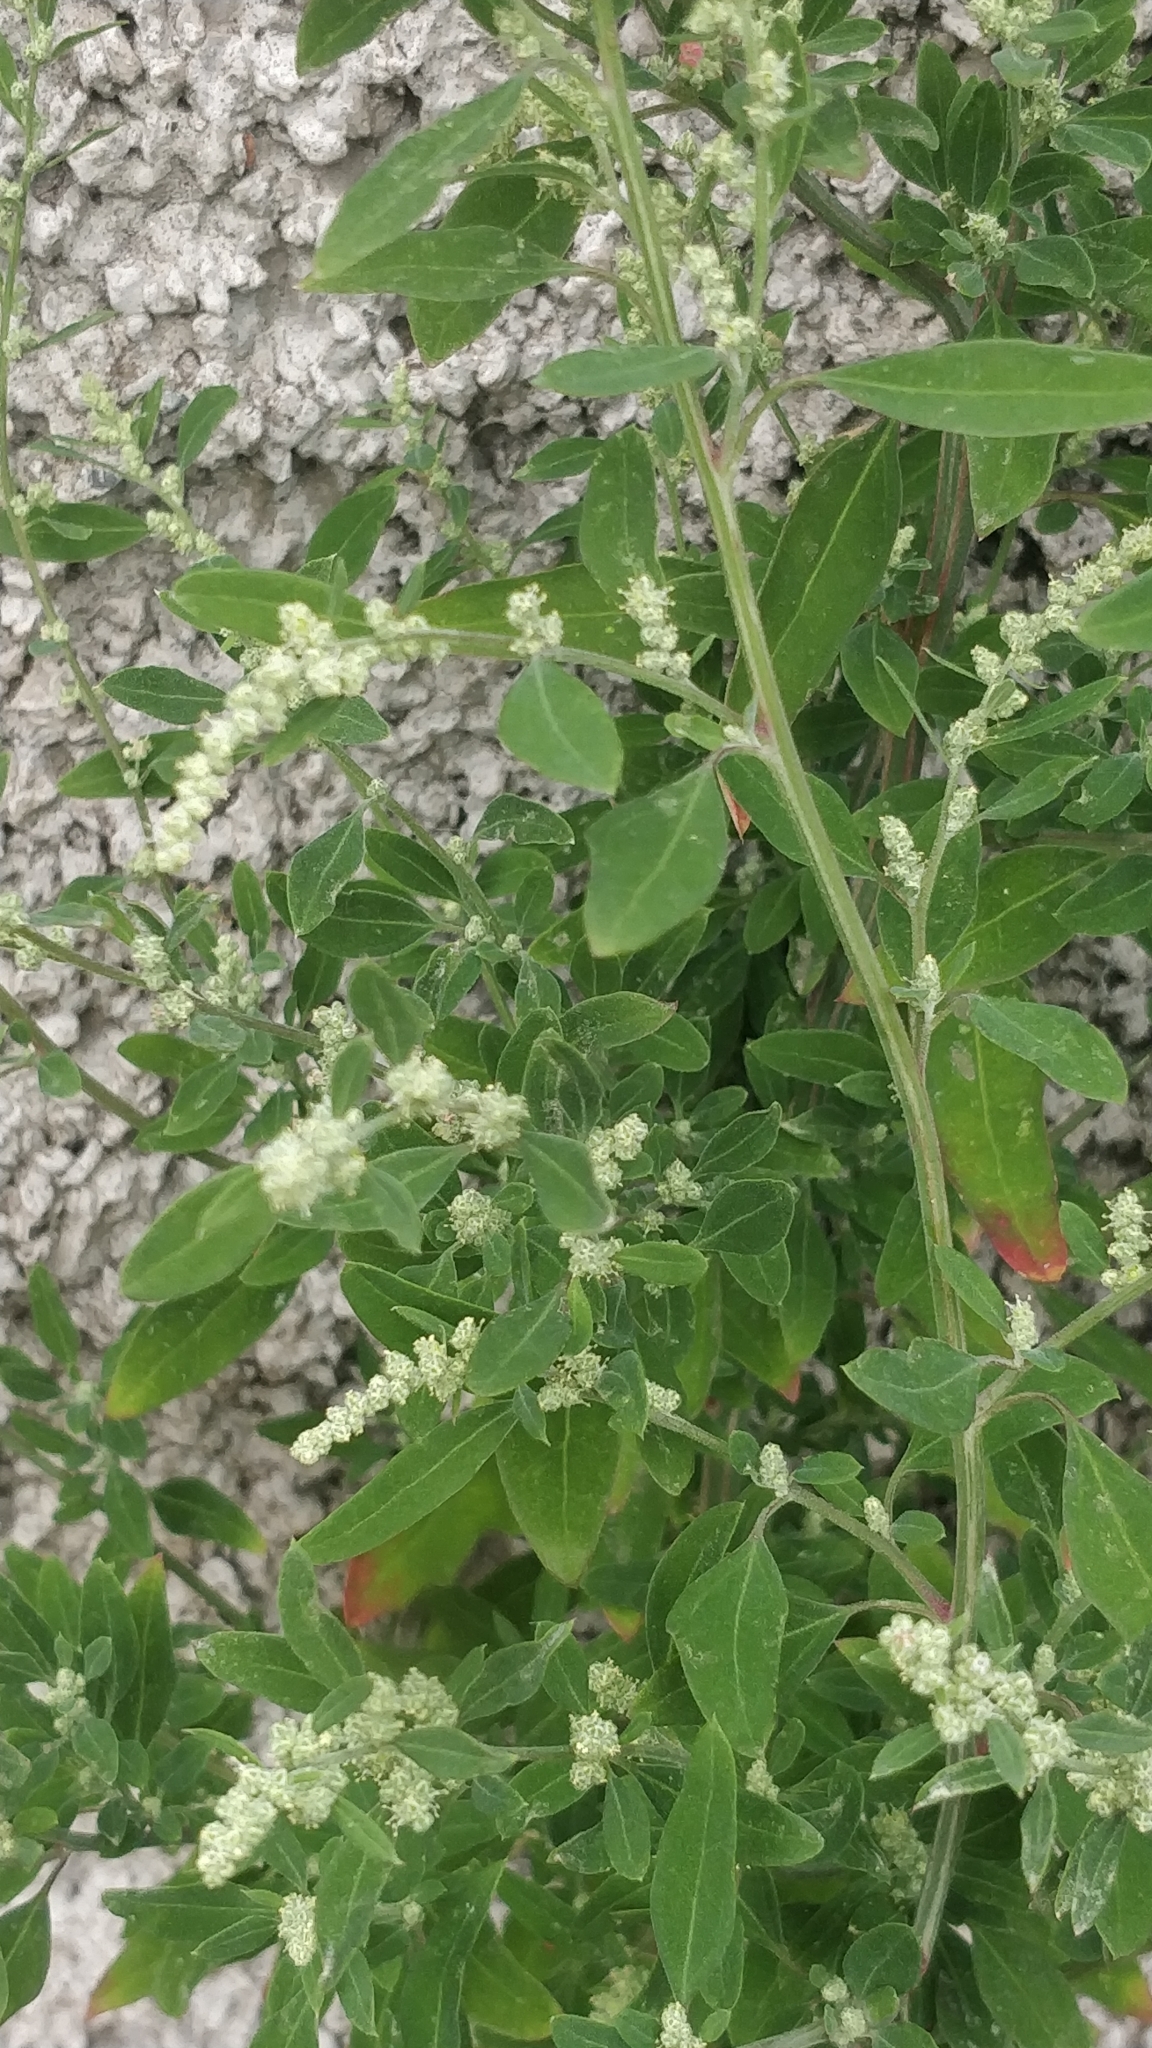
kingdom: Plantae
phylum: Tracheophyta
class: Magnoliopsida
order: Caryophyllales
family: Amaranthaceae
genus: Chenopodium
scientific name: Chenopodium album
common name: Fat-hen
